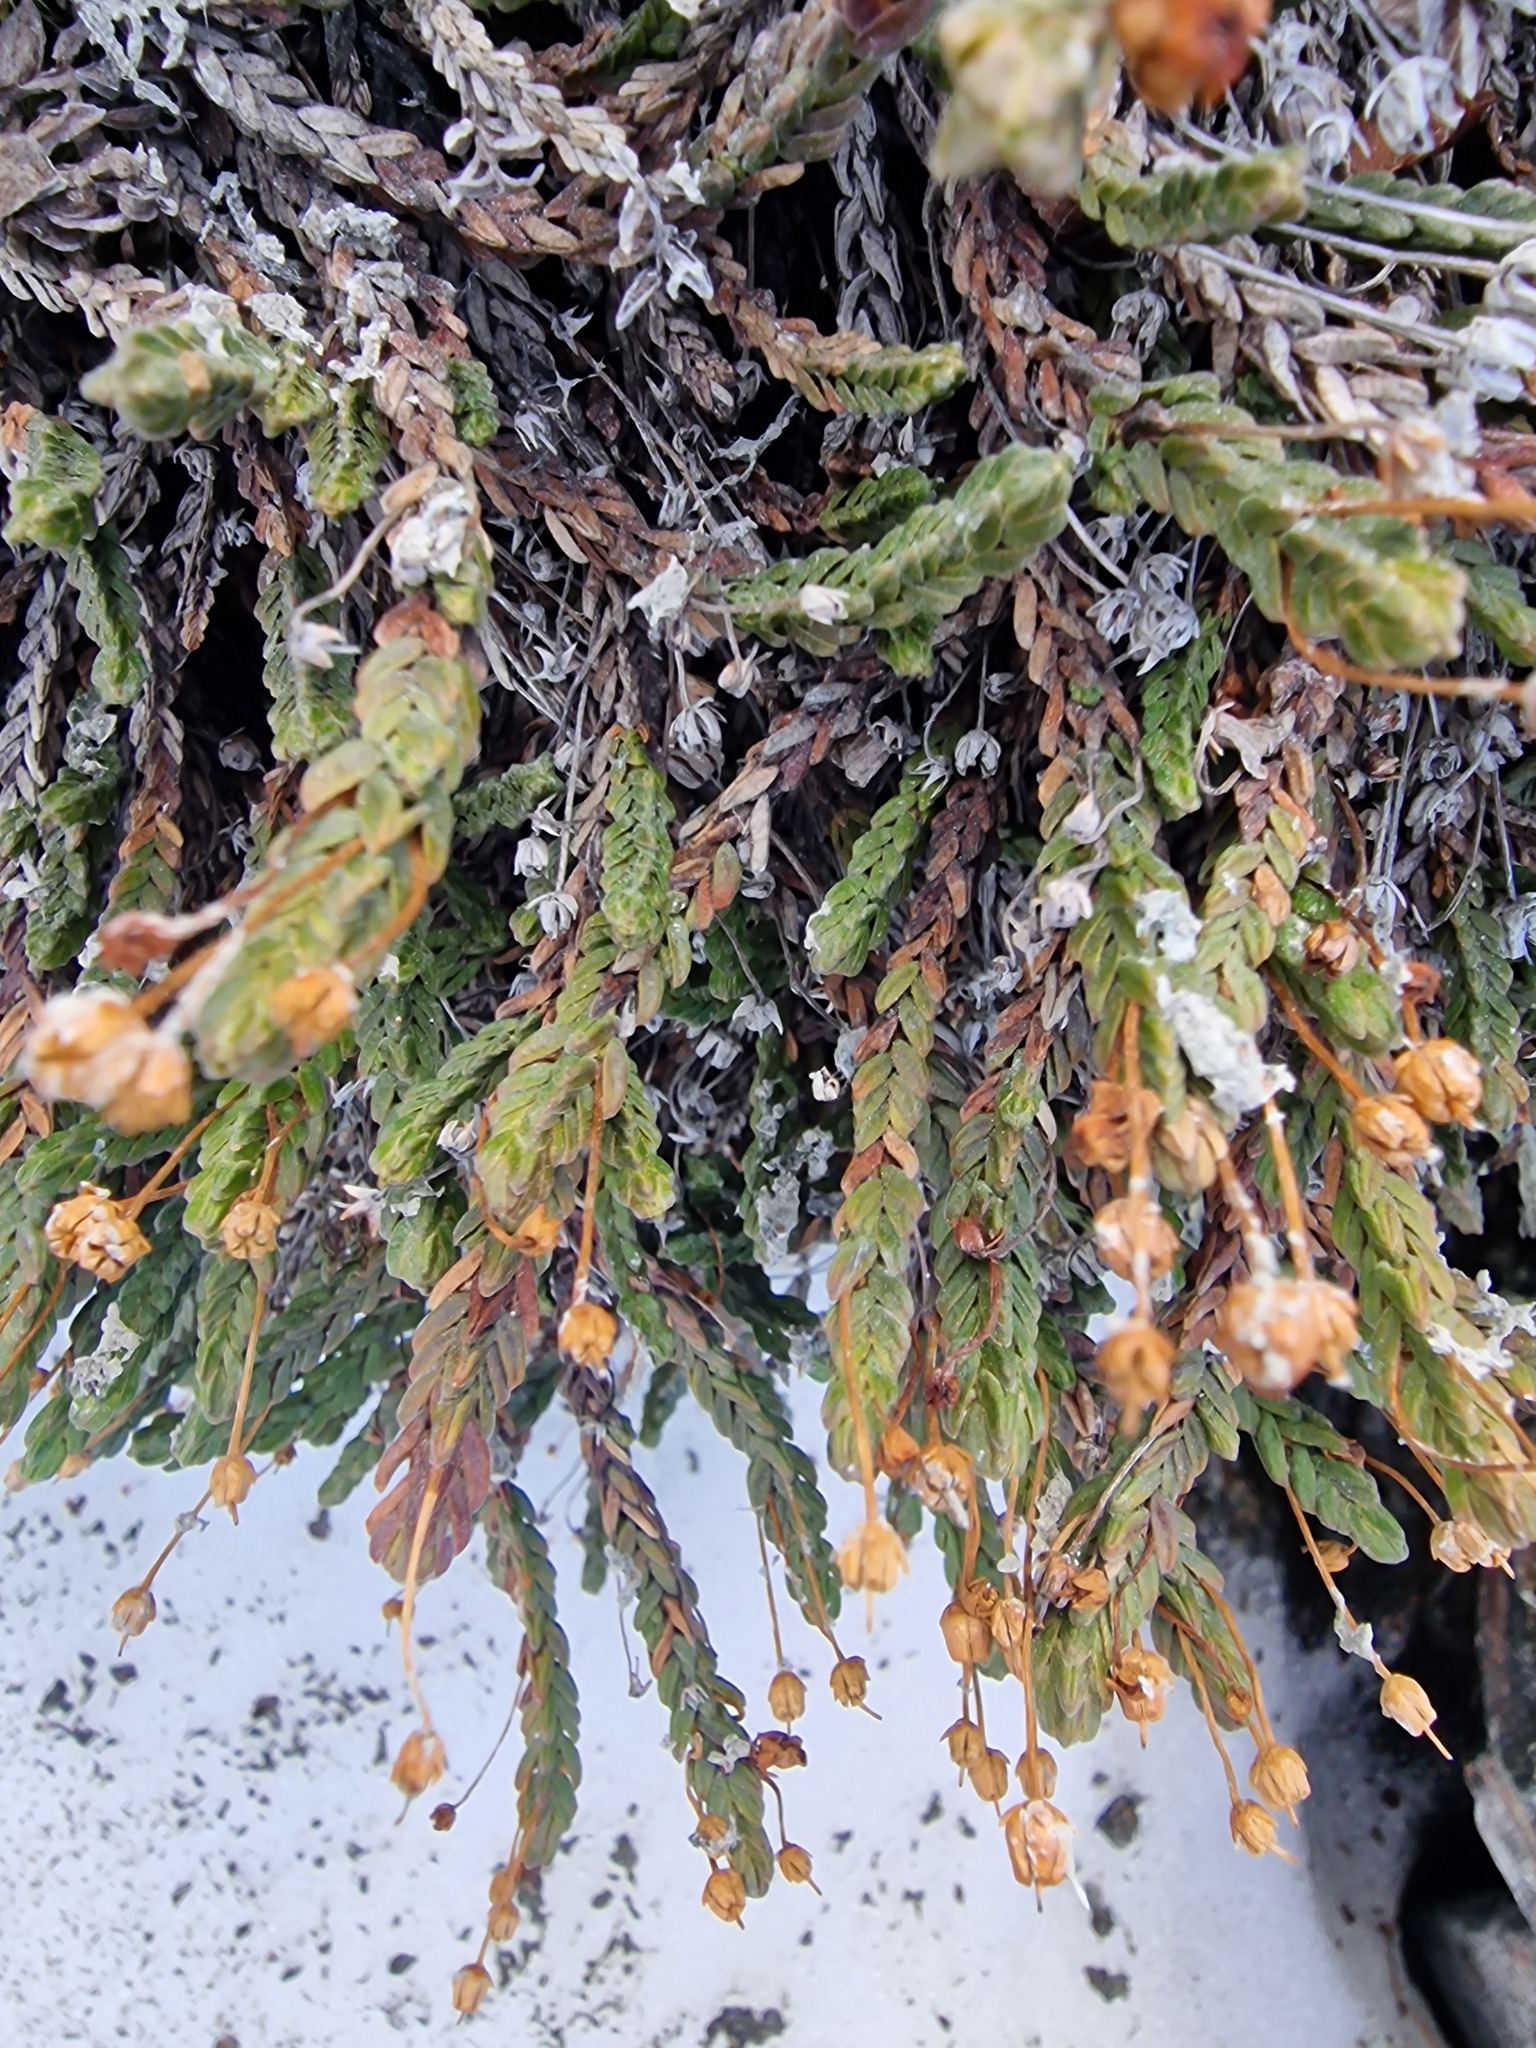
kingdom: Plantae
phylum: Tracheophyta
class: Magnoliopsida
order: Ericales
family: Ericaceae
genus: Cassiope
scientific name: Cassiope tetragona
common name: Arctic bell heather
